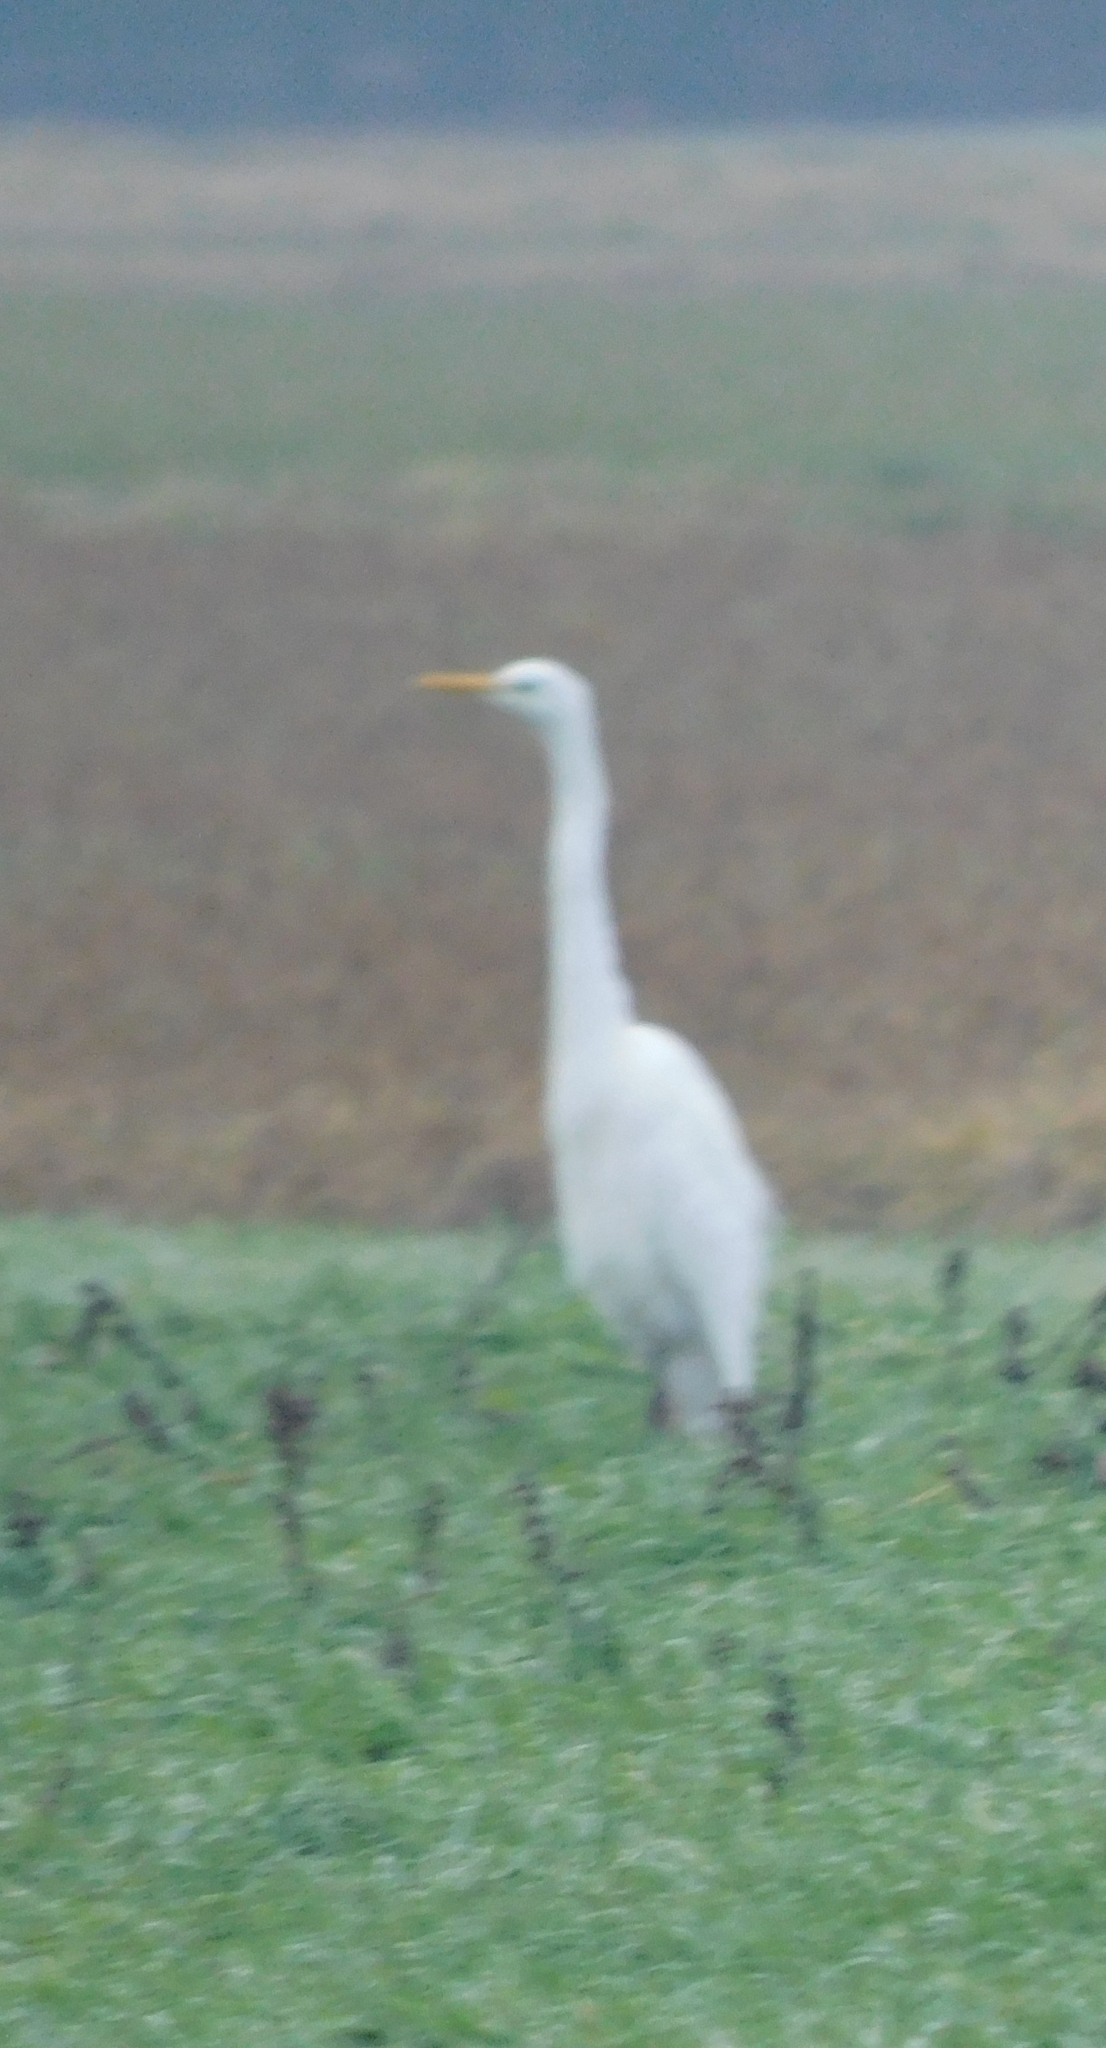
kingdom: Animalia
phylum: Chordata
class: Aves
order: Pelecaniformes
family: Ardeidae
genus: Ardea
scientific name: Ardea alba
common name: Great egret
